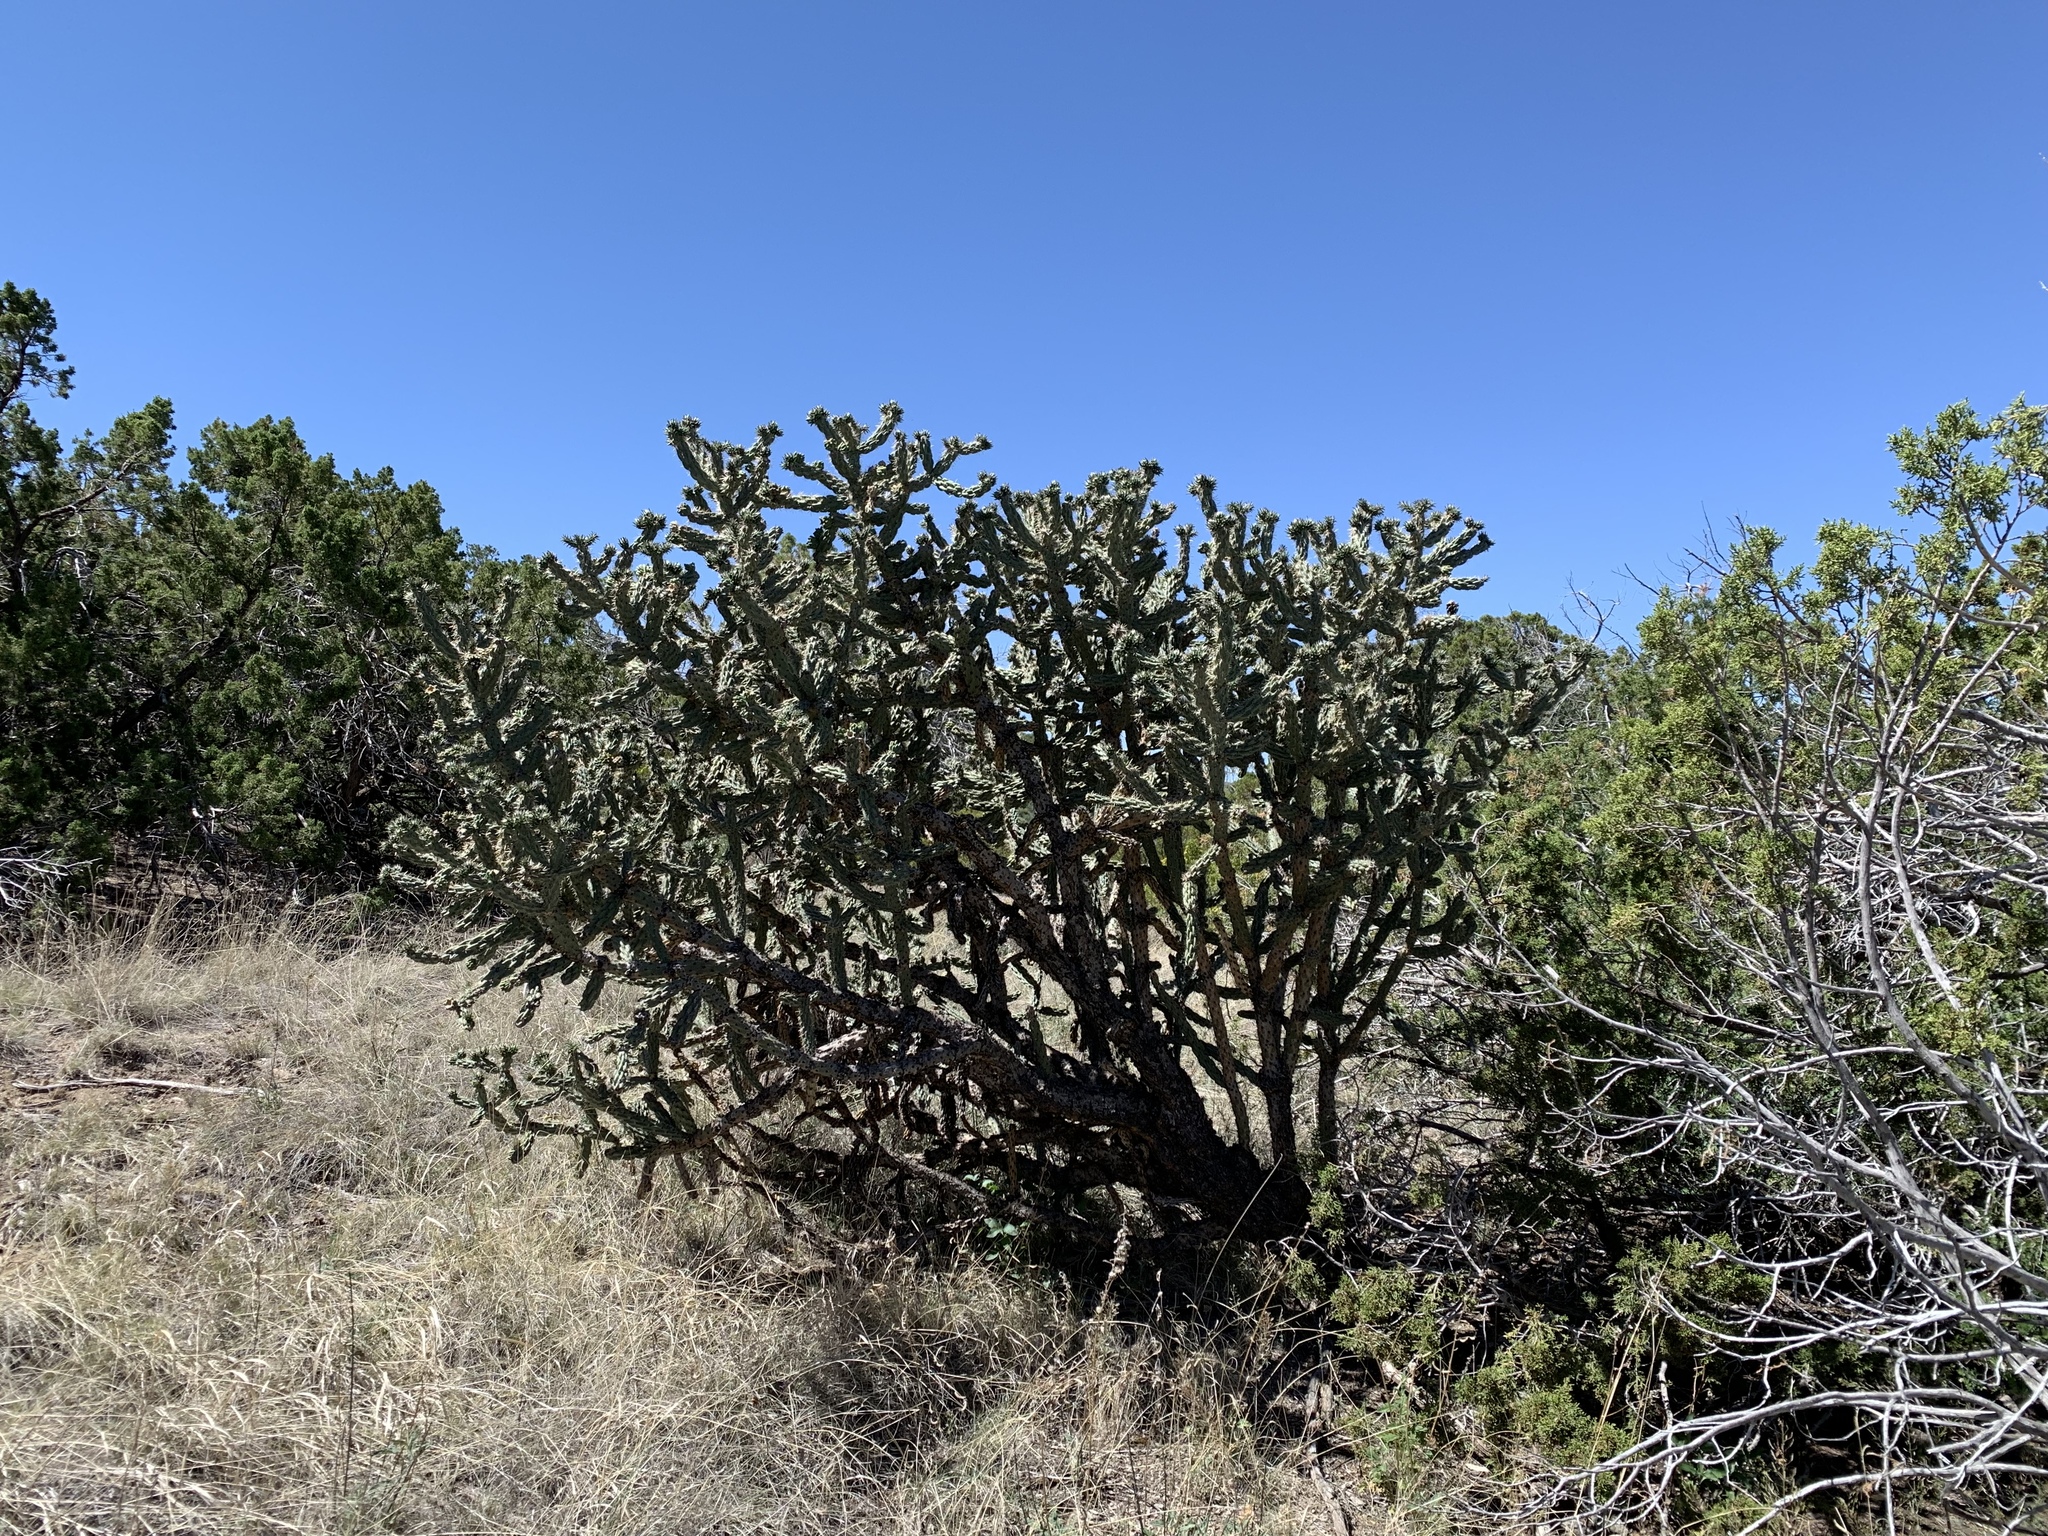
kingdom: Plantae
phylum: Tracheophyta
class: Magnoliopsida
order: Caryophyllales
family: Cactaceae
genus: Cylindropuntia
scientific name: Cylindropuntia imbricata
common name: Candelabrum cactus
